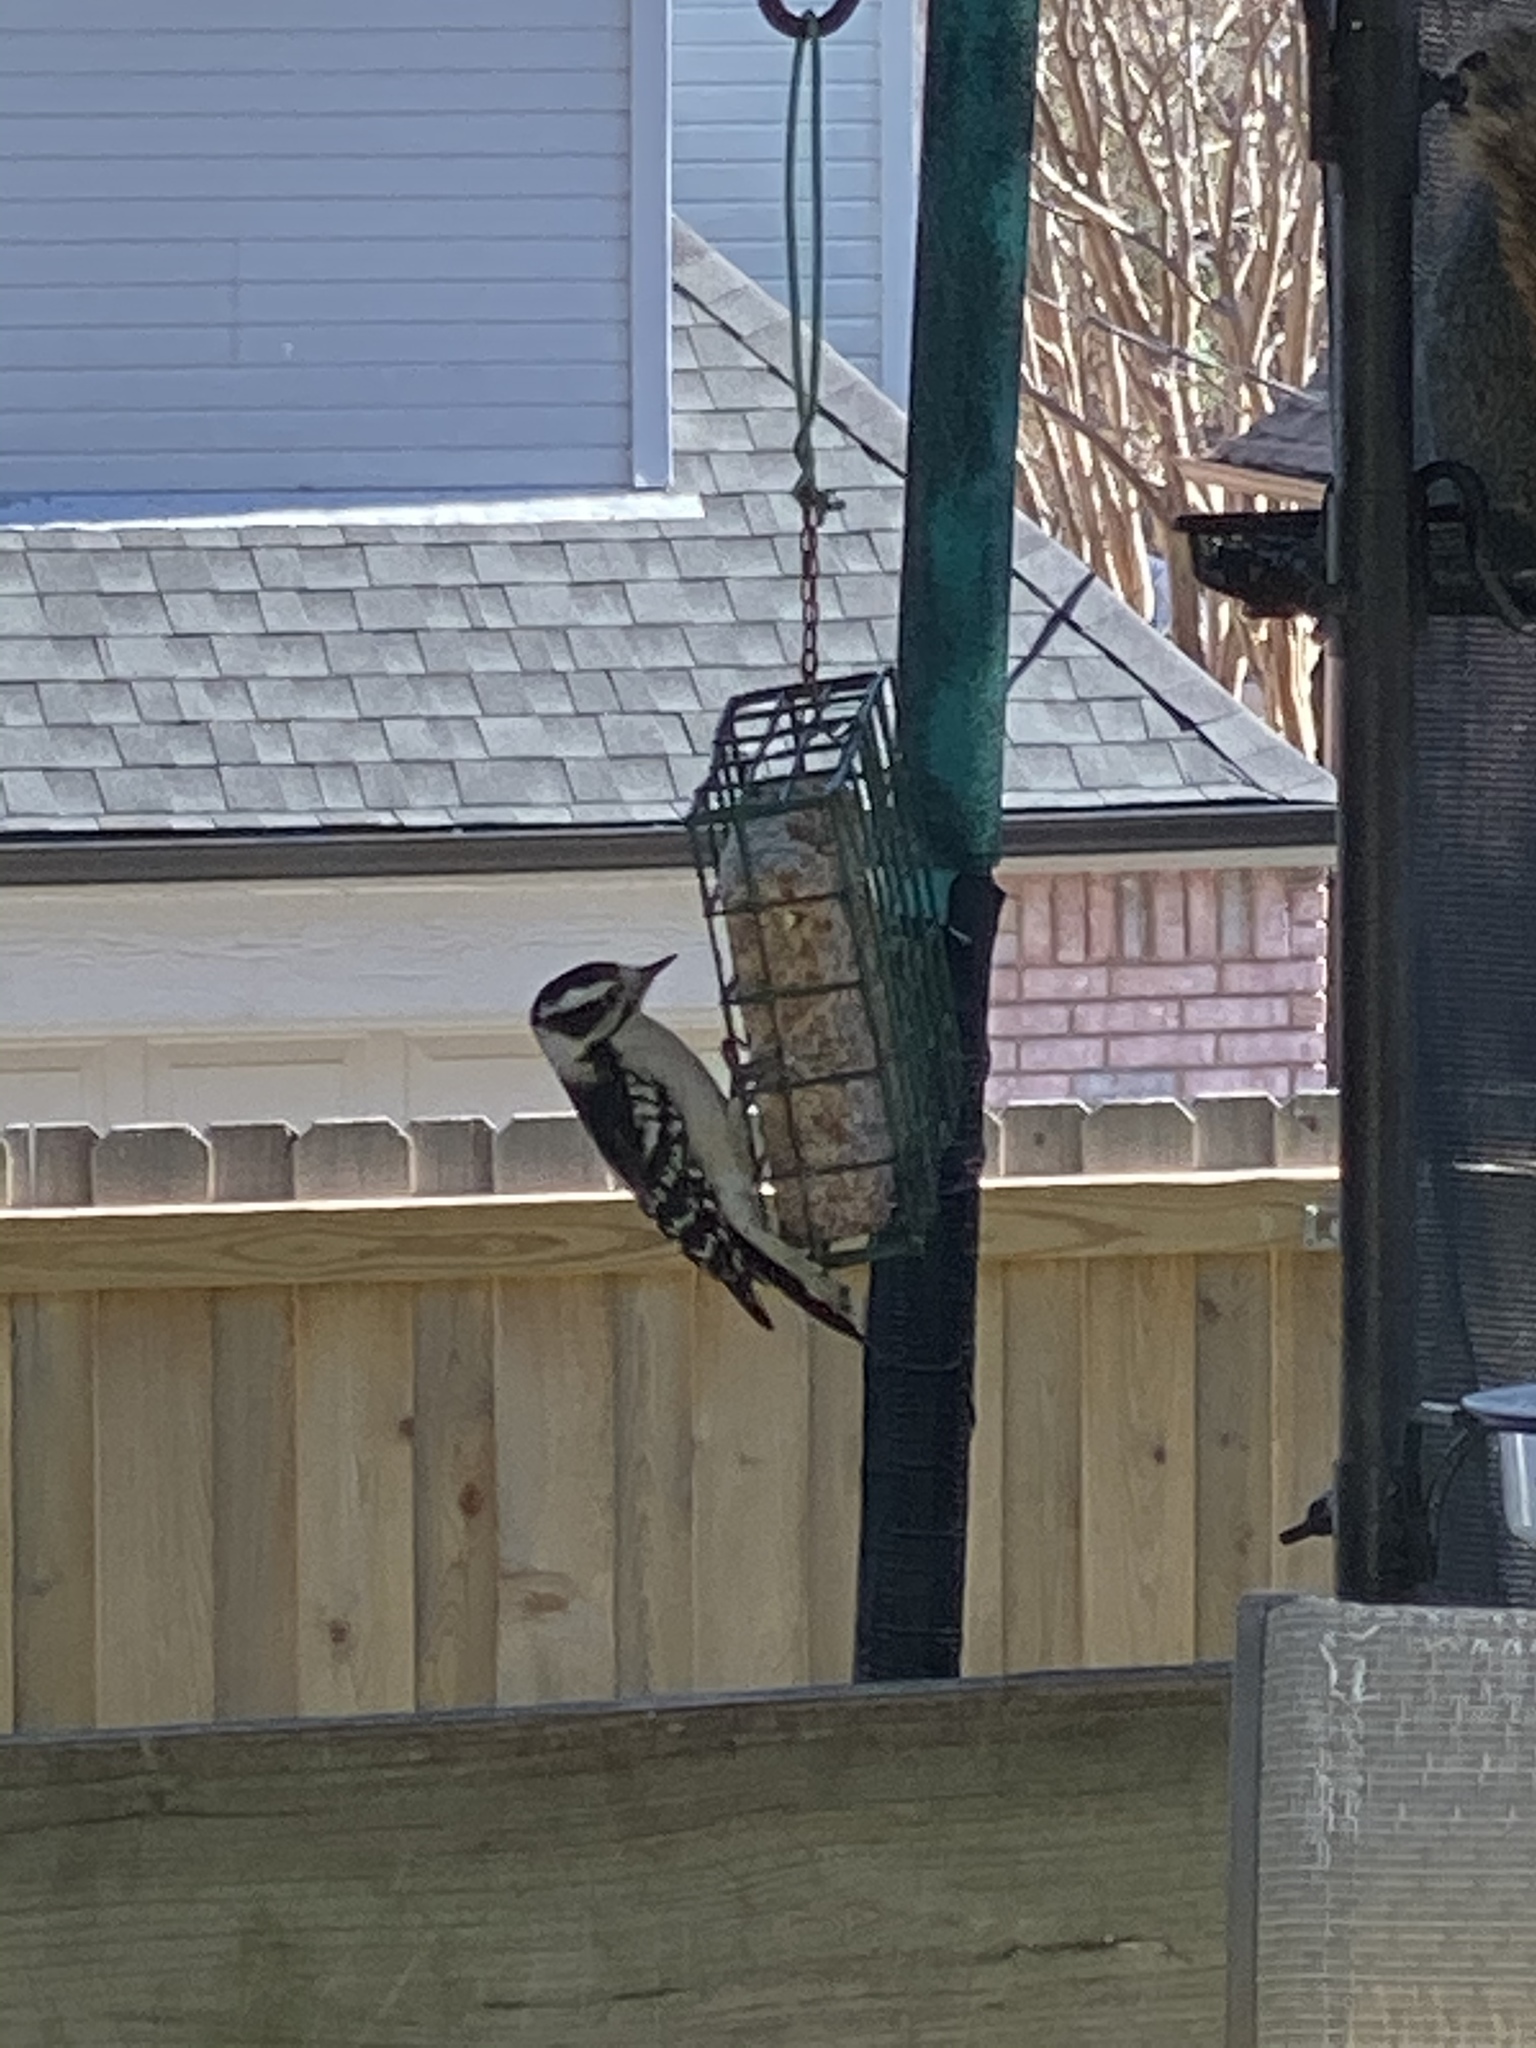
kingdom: Animalia
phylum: Chordata
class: Aves
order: Piciformes
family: Picidae
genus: Dryobates
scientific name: Dryobates pubescens
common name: Downy woodpecker
